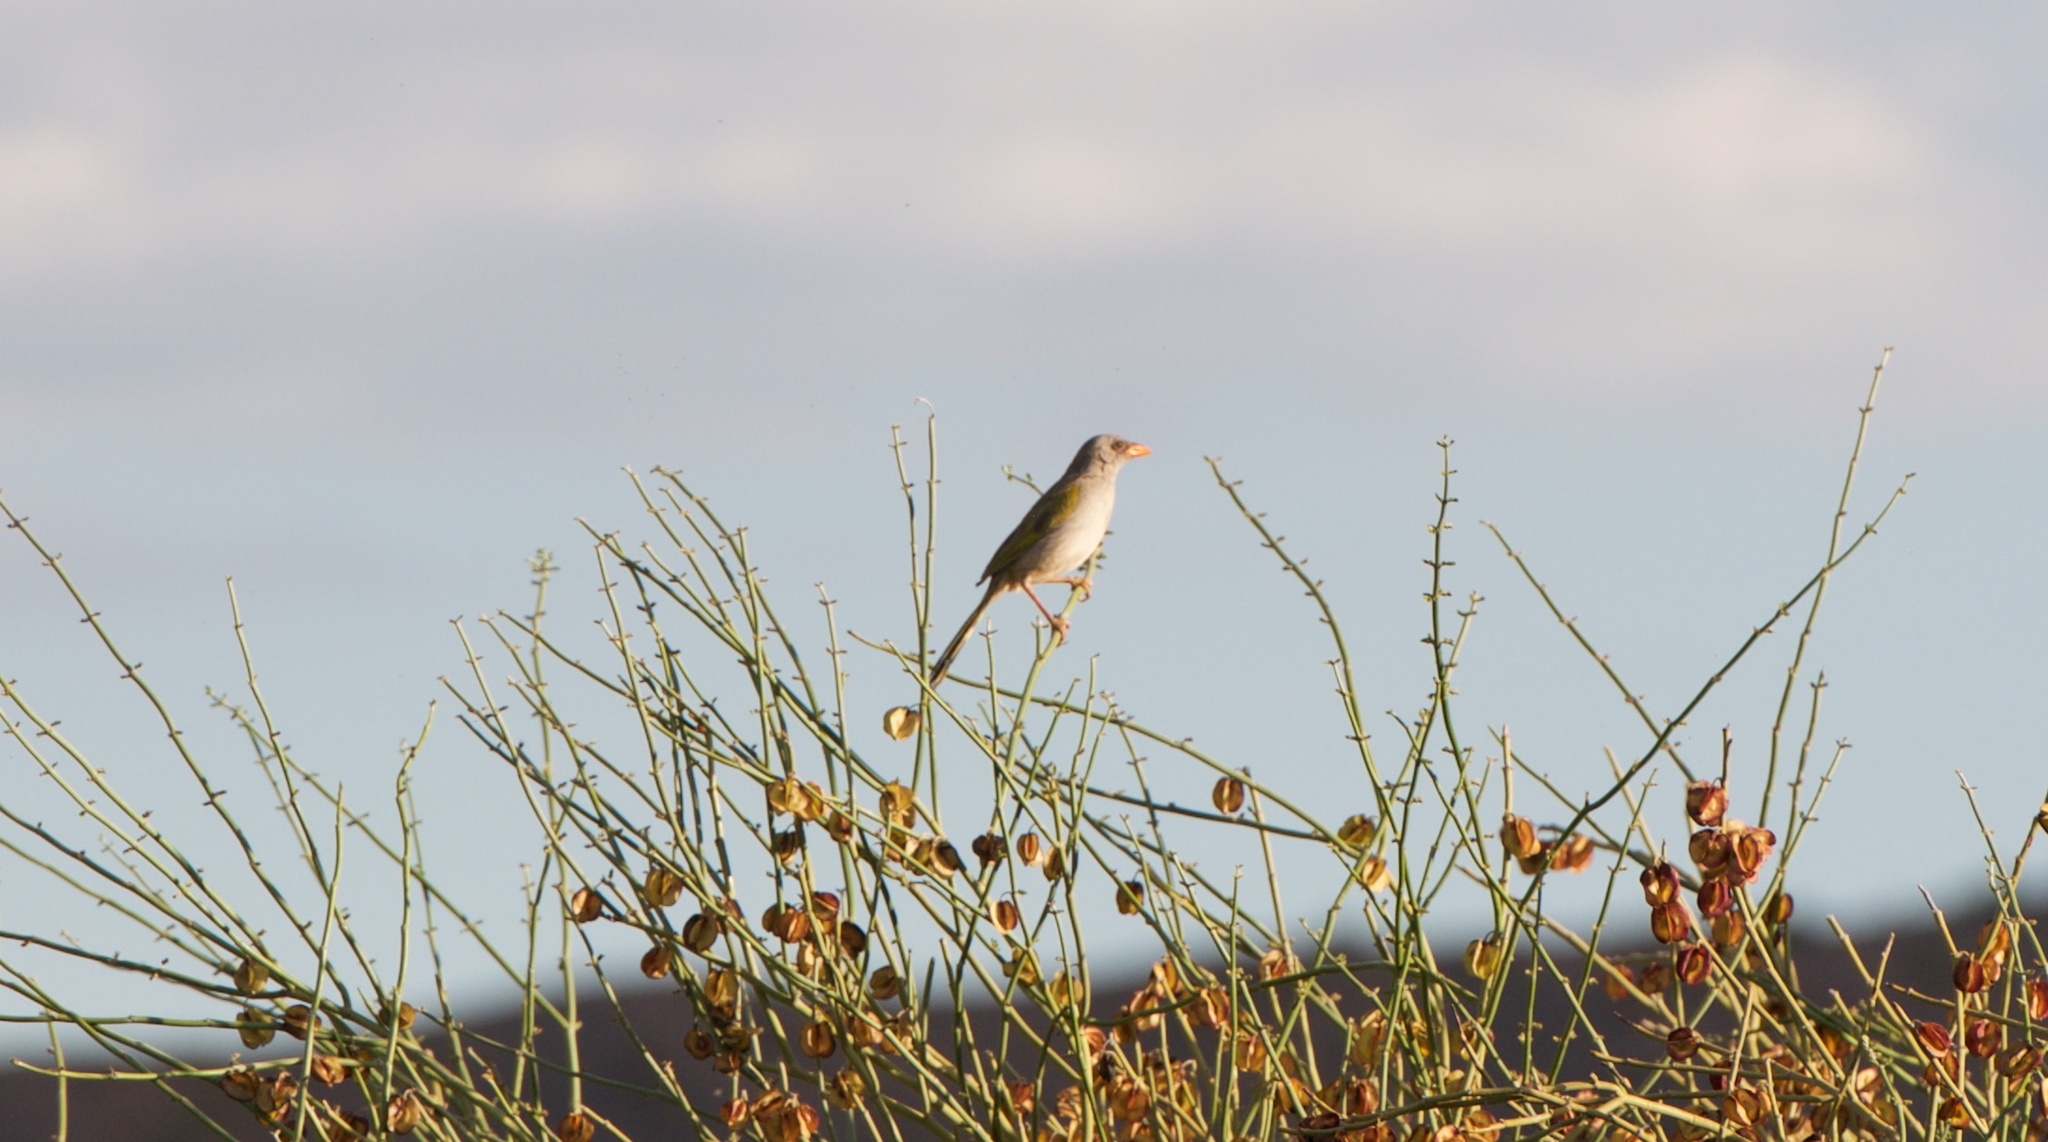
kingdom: Animalia
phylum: Chordata
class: Aves
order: Passeriformes
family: Thraupidae
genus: Embernagra
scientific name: Embernagra platensis
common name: Pampa finch
